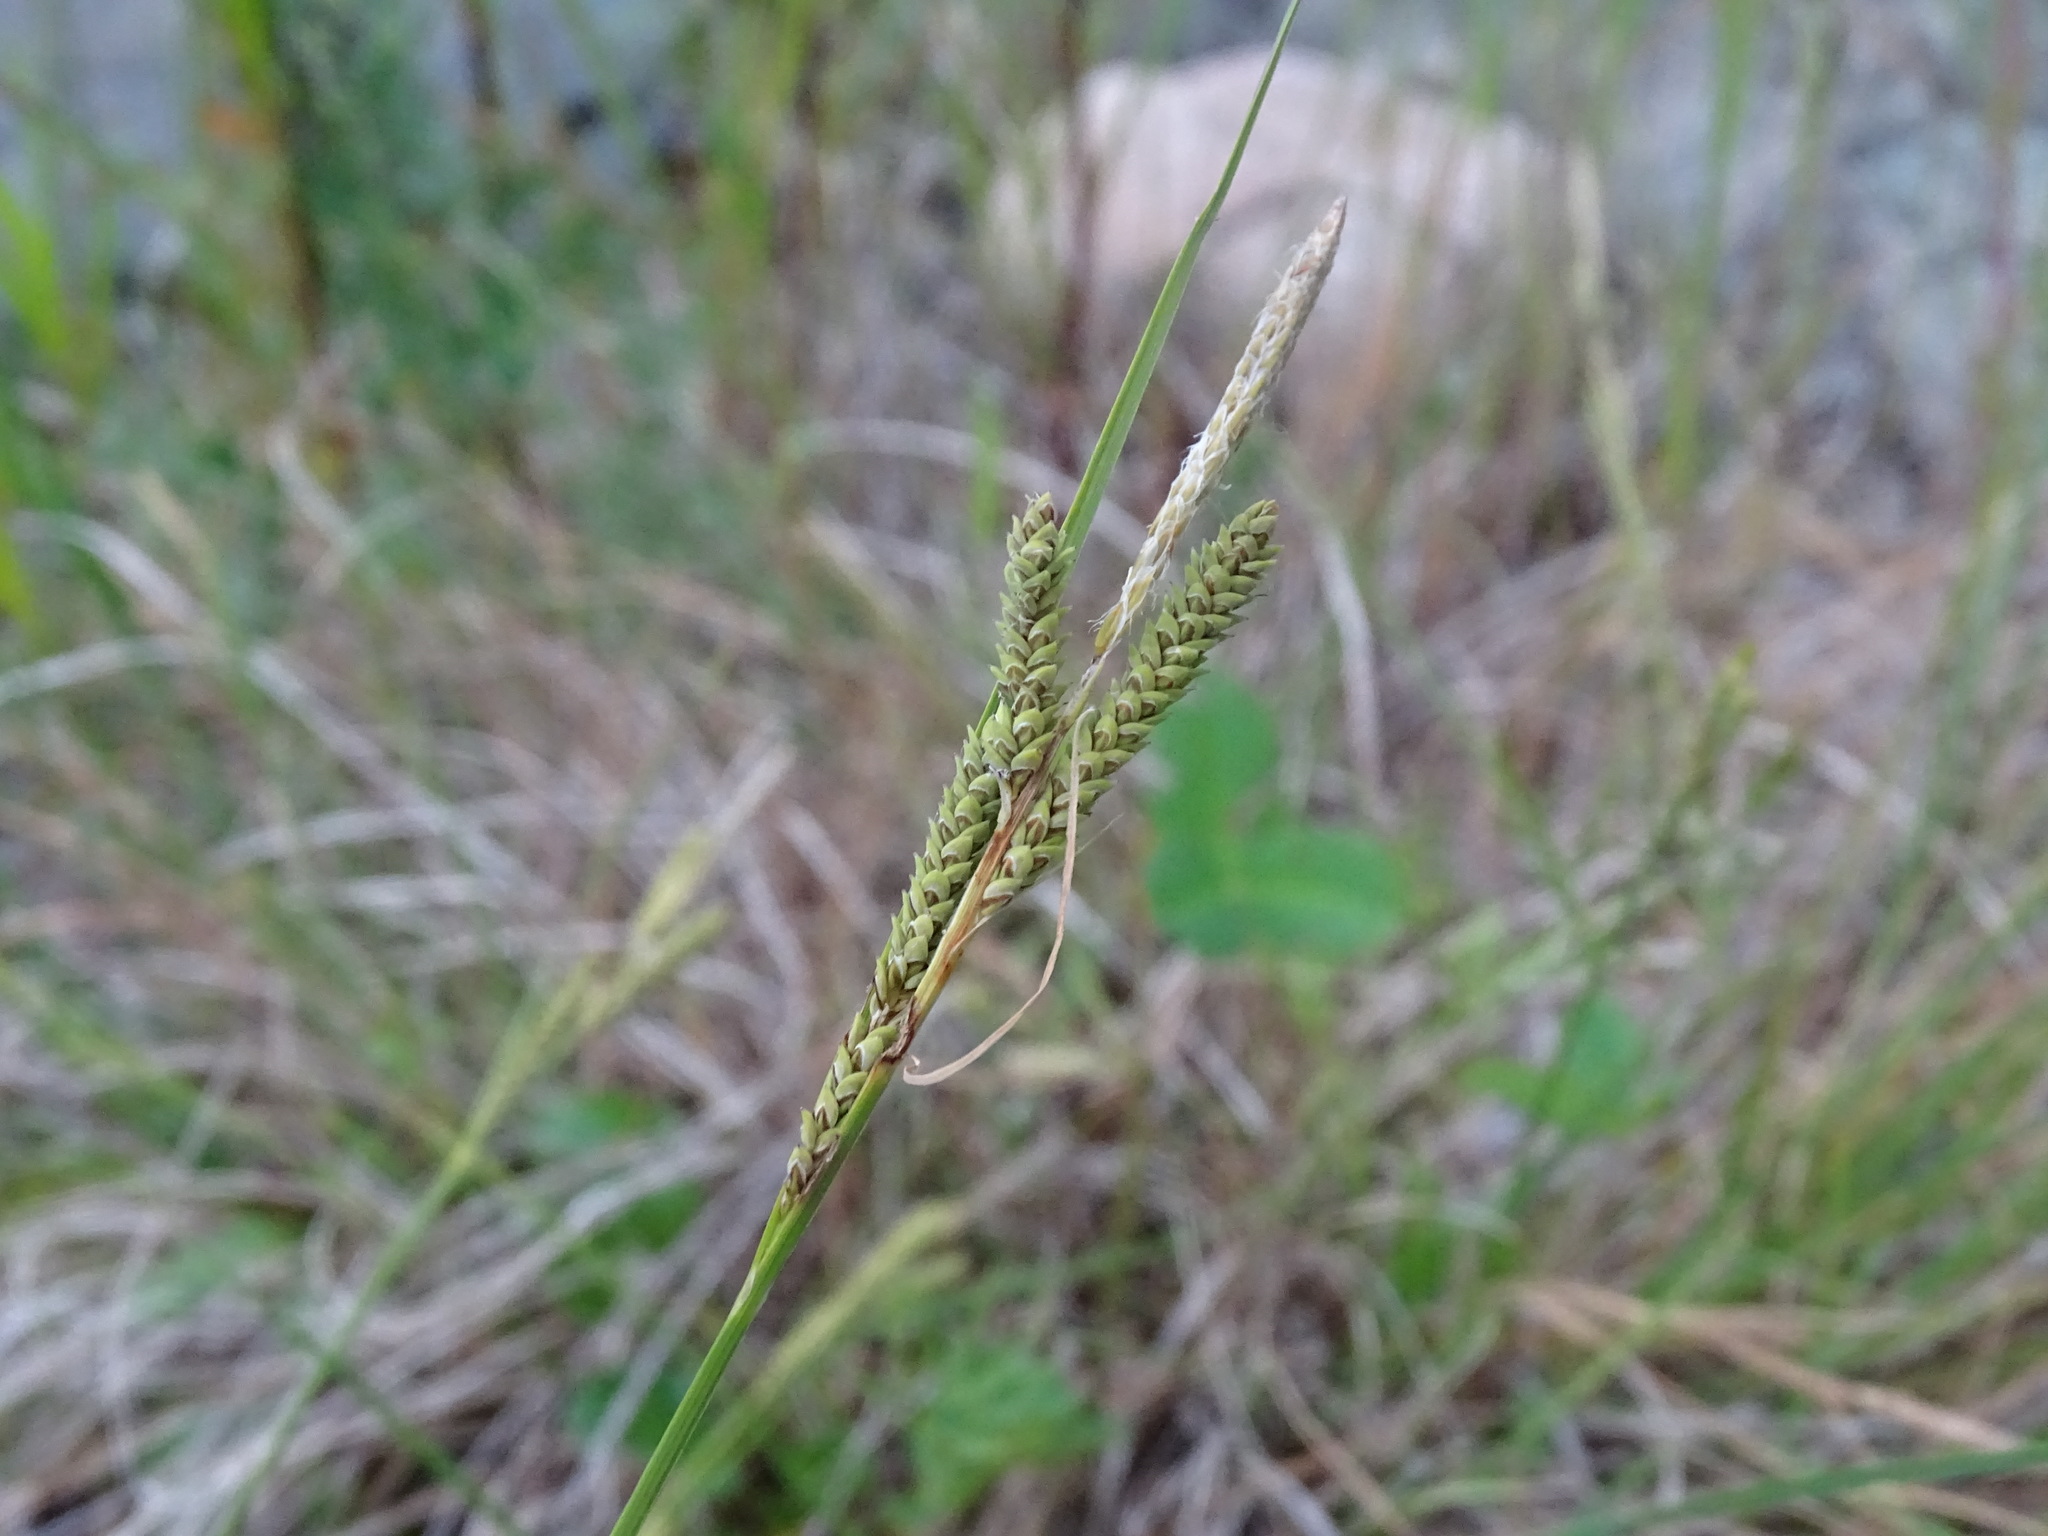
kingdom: Plantae
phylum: Tracheophyta
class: Liliopsida
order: Poales
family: Cyperaceae
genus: Carex
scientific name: Carex lenticularis
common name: Lakeshore sedge
